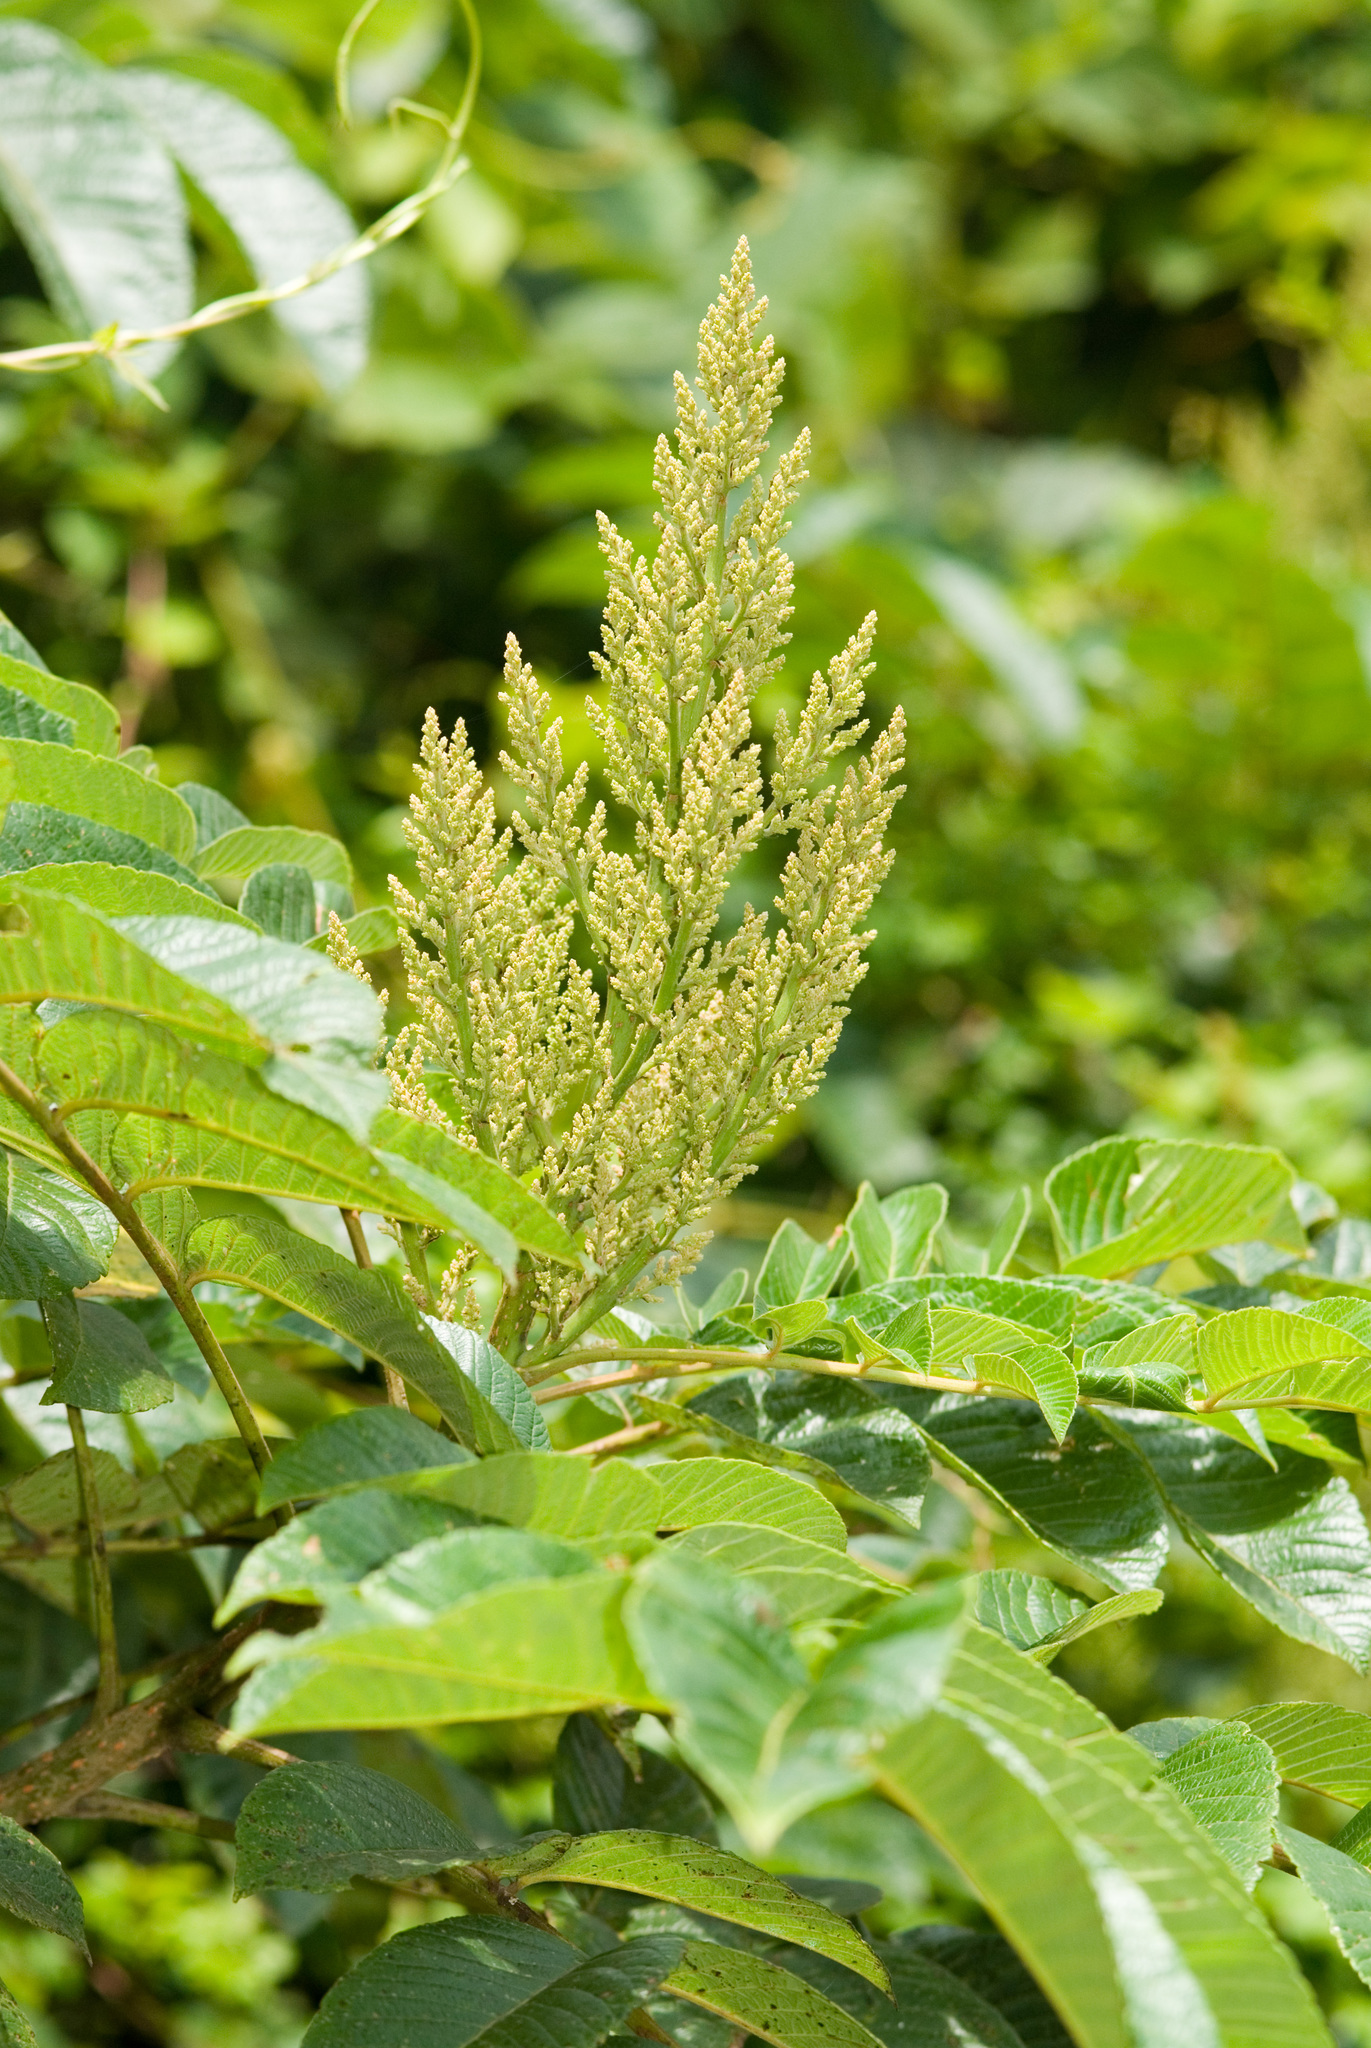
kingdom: Plantae
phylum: Tracheophyta
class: Magnoliopsida
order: Sapindales
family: Anacardiaceae
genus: Rhus
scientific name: Rhus chinensis
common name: Chinese gall
